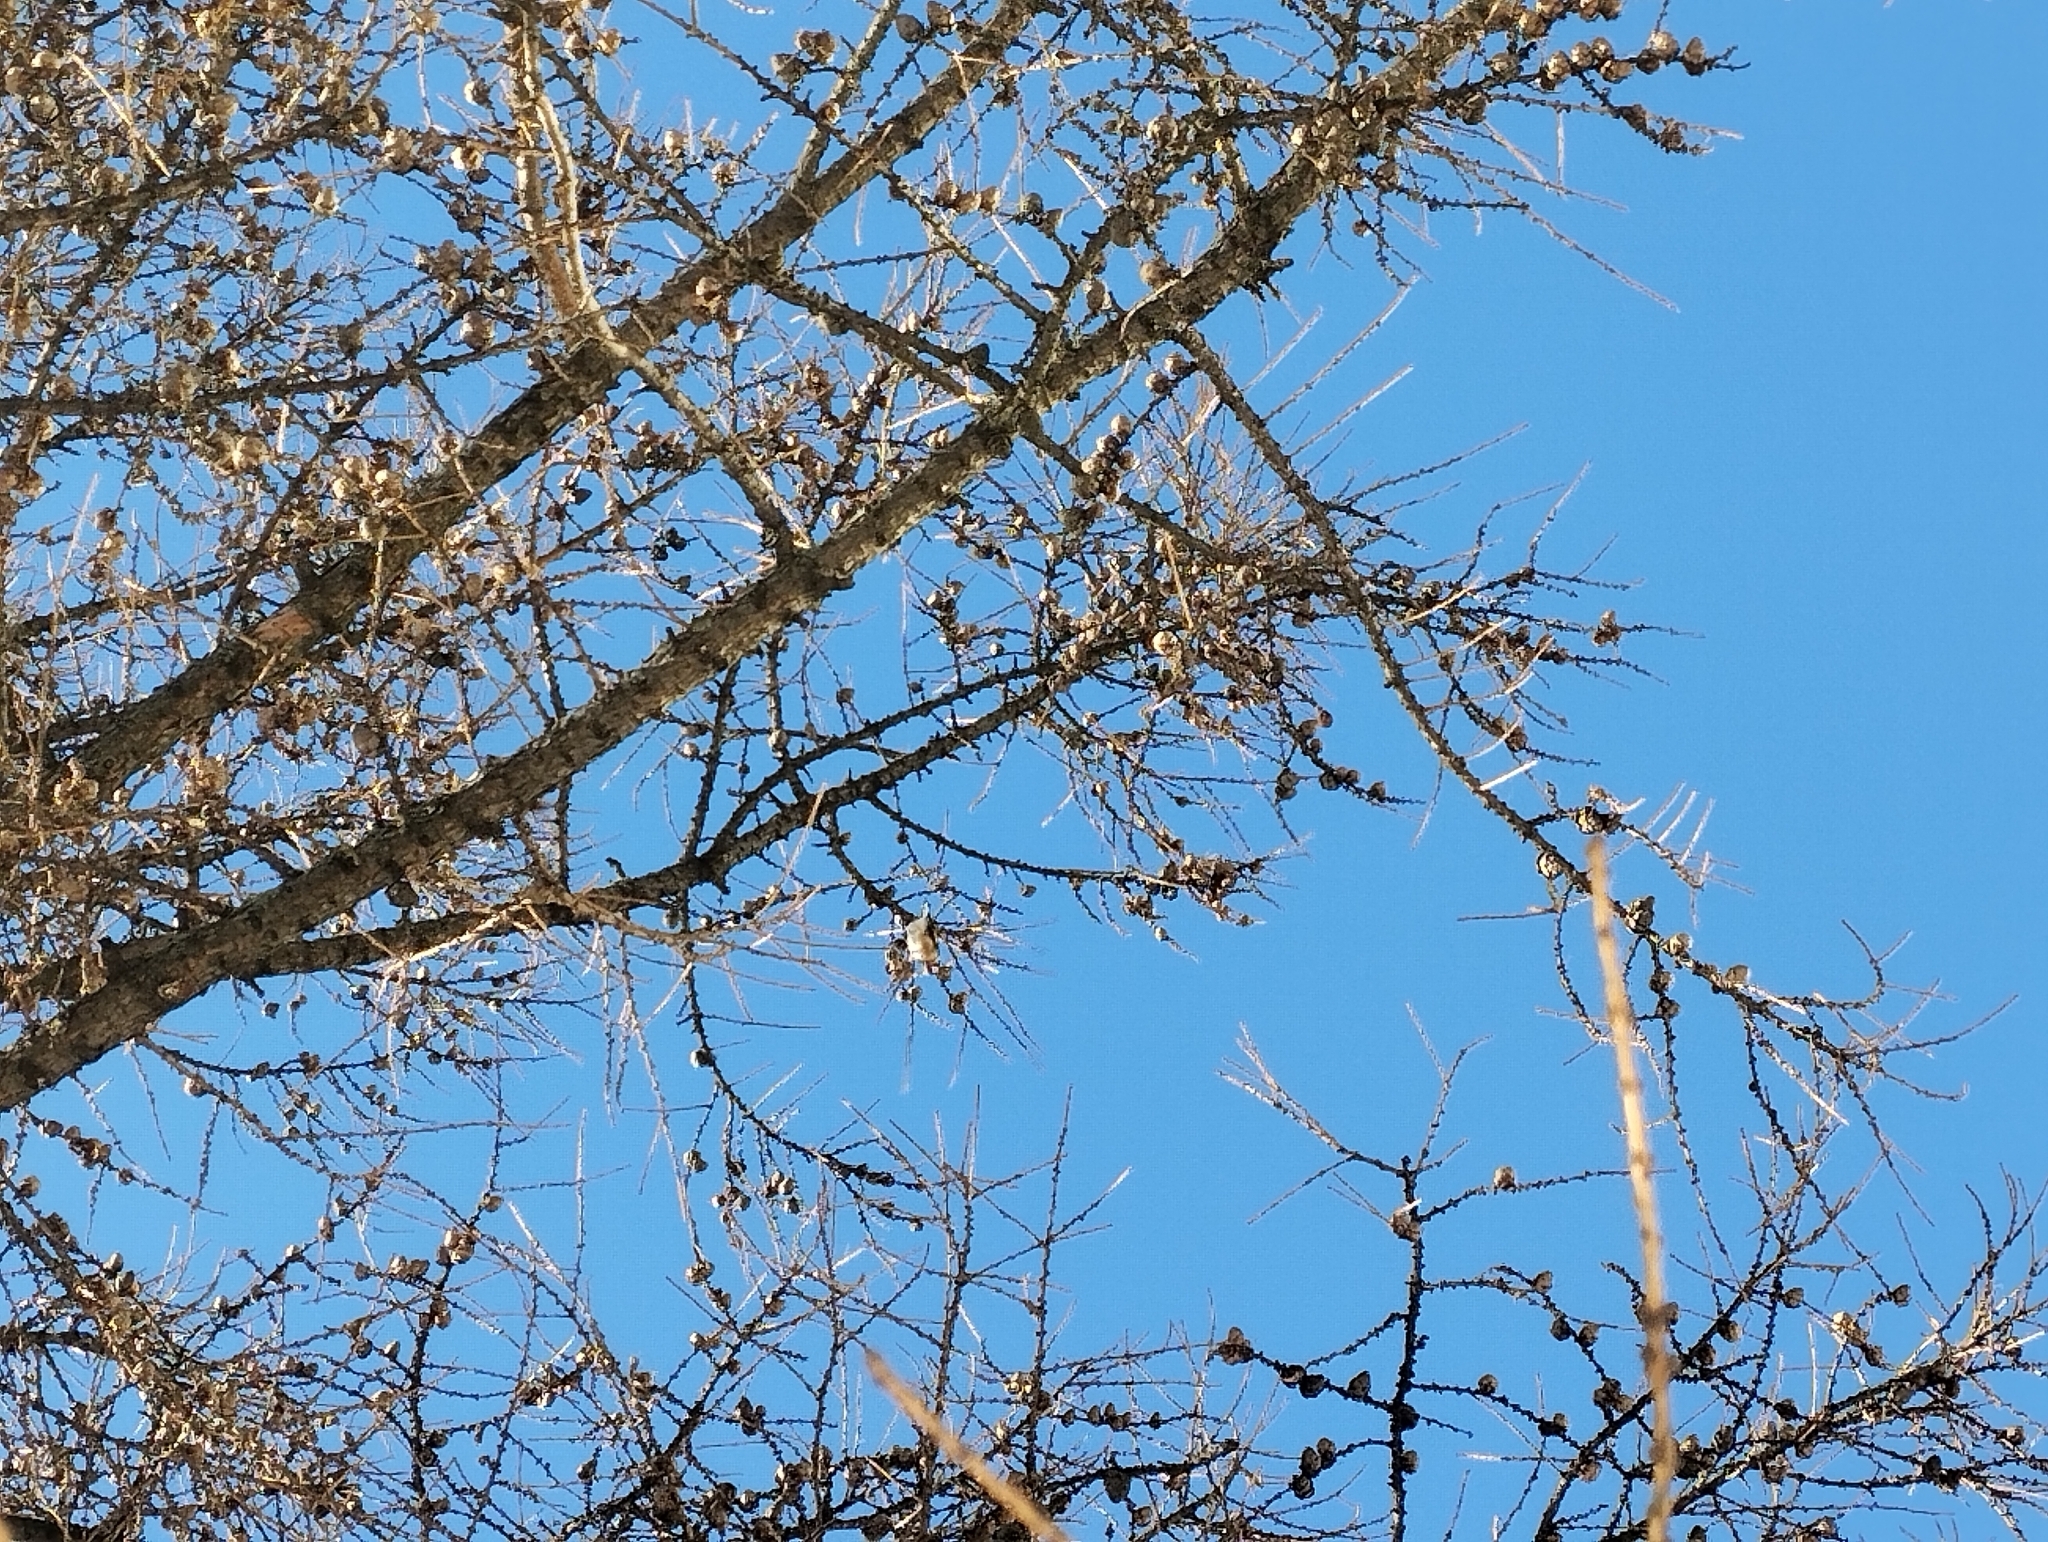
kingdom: Animalia
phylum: Chordata
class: Aves
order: Passeriformes
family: Fringillidae
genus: Carduelis
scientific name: Carduelis carduelis
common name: European goldfinch
